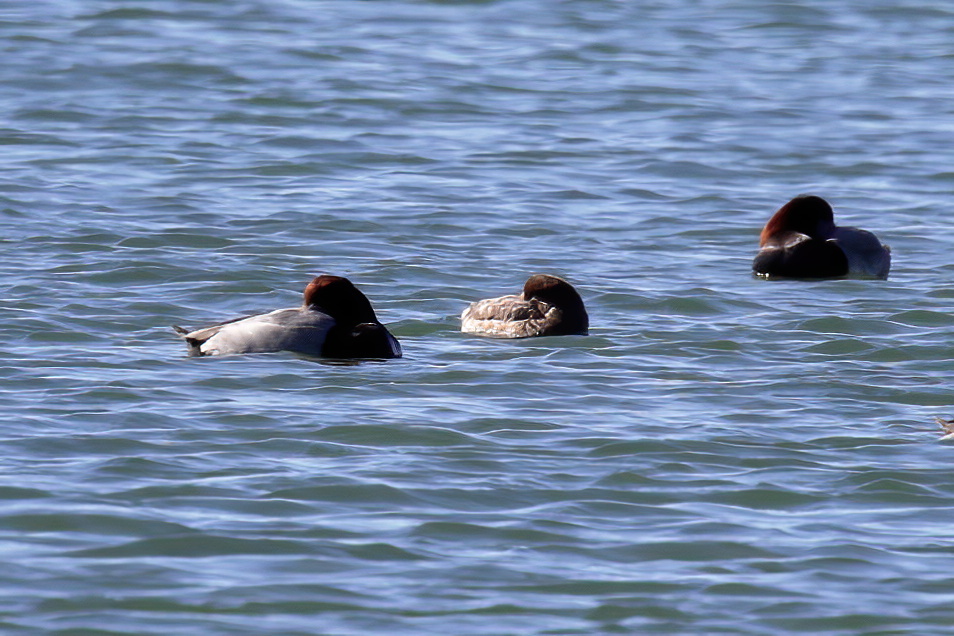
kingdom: Animalia
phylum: Chordata
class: Aves
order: Anseriformes
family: Anatidae
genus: Aythya
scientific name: Aythya americana
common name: Redhead
